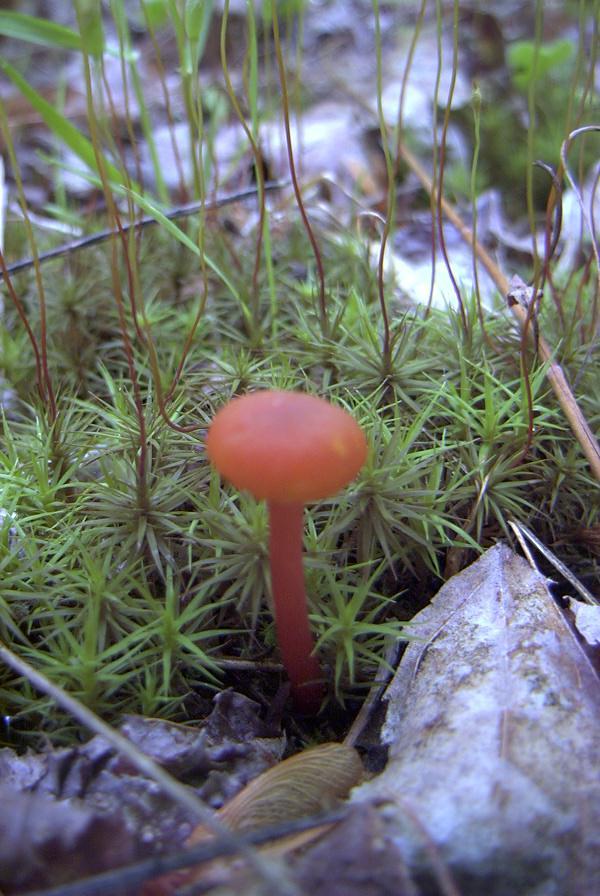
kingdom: Fungi
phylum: Basidiomycota
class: Agaricomycetes
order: Agaricales
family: Hygrophoraceae
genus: Hygrocybe
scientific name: Hygrocybe coccinea
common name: Scarlet hood
